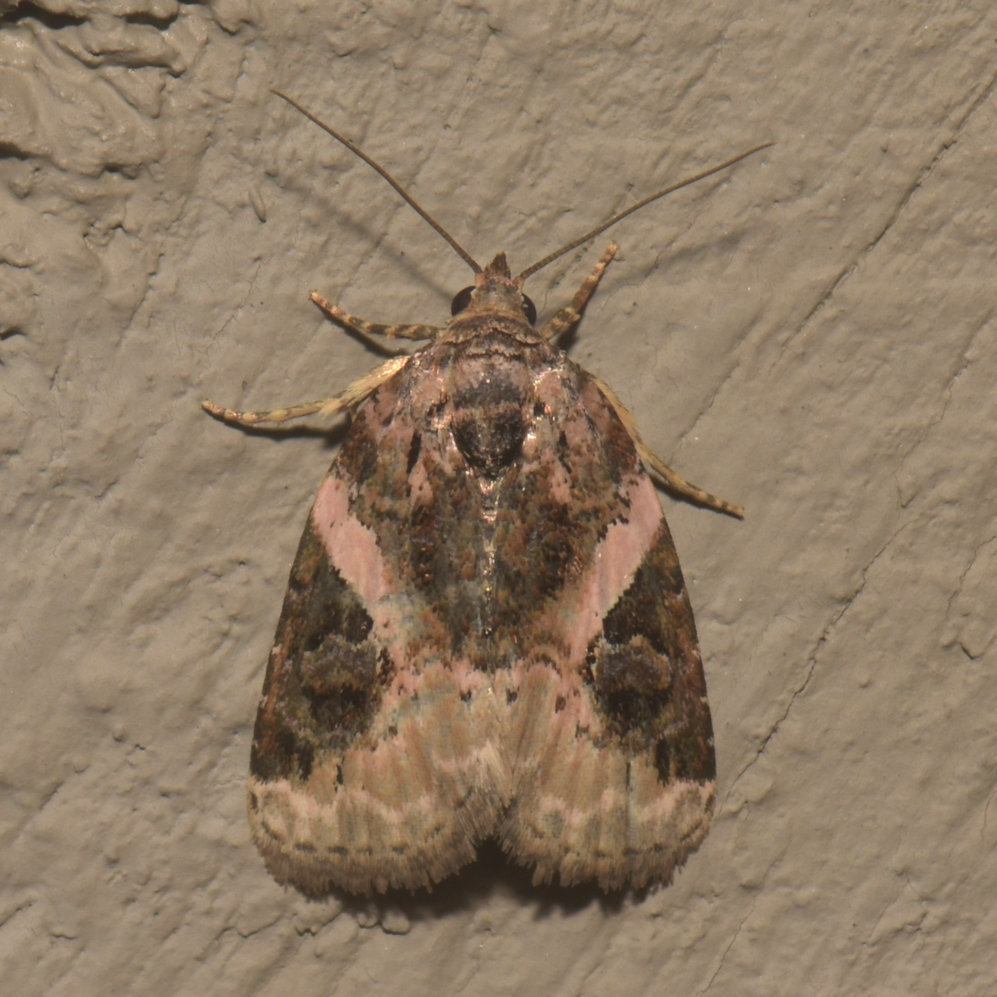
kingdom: Animalia
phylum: Arthropoda
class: Insecta
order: Lepidoptera
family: Noctuidae
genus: Pseudeustrotia
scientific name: Pseudeustrotia carneola
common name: Pink-barred lithacodia moth
